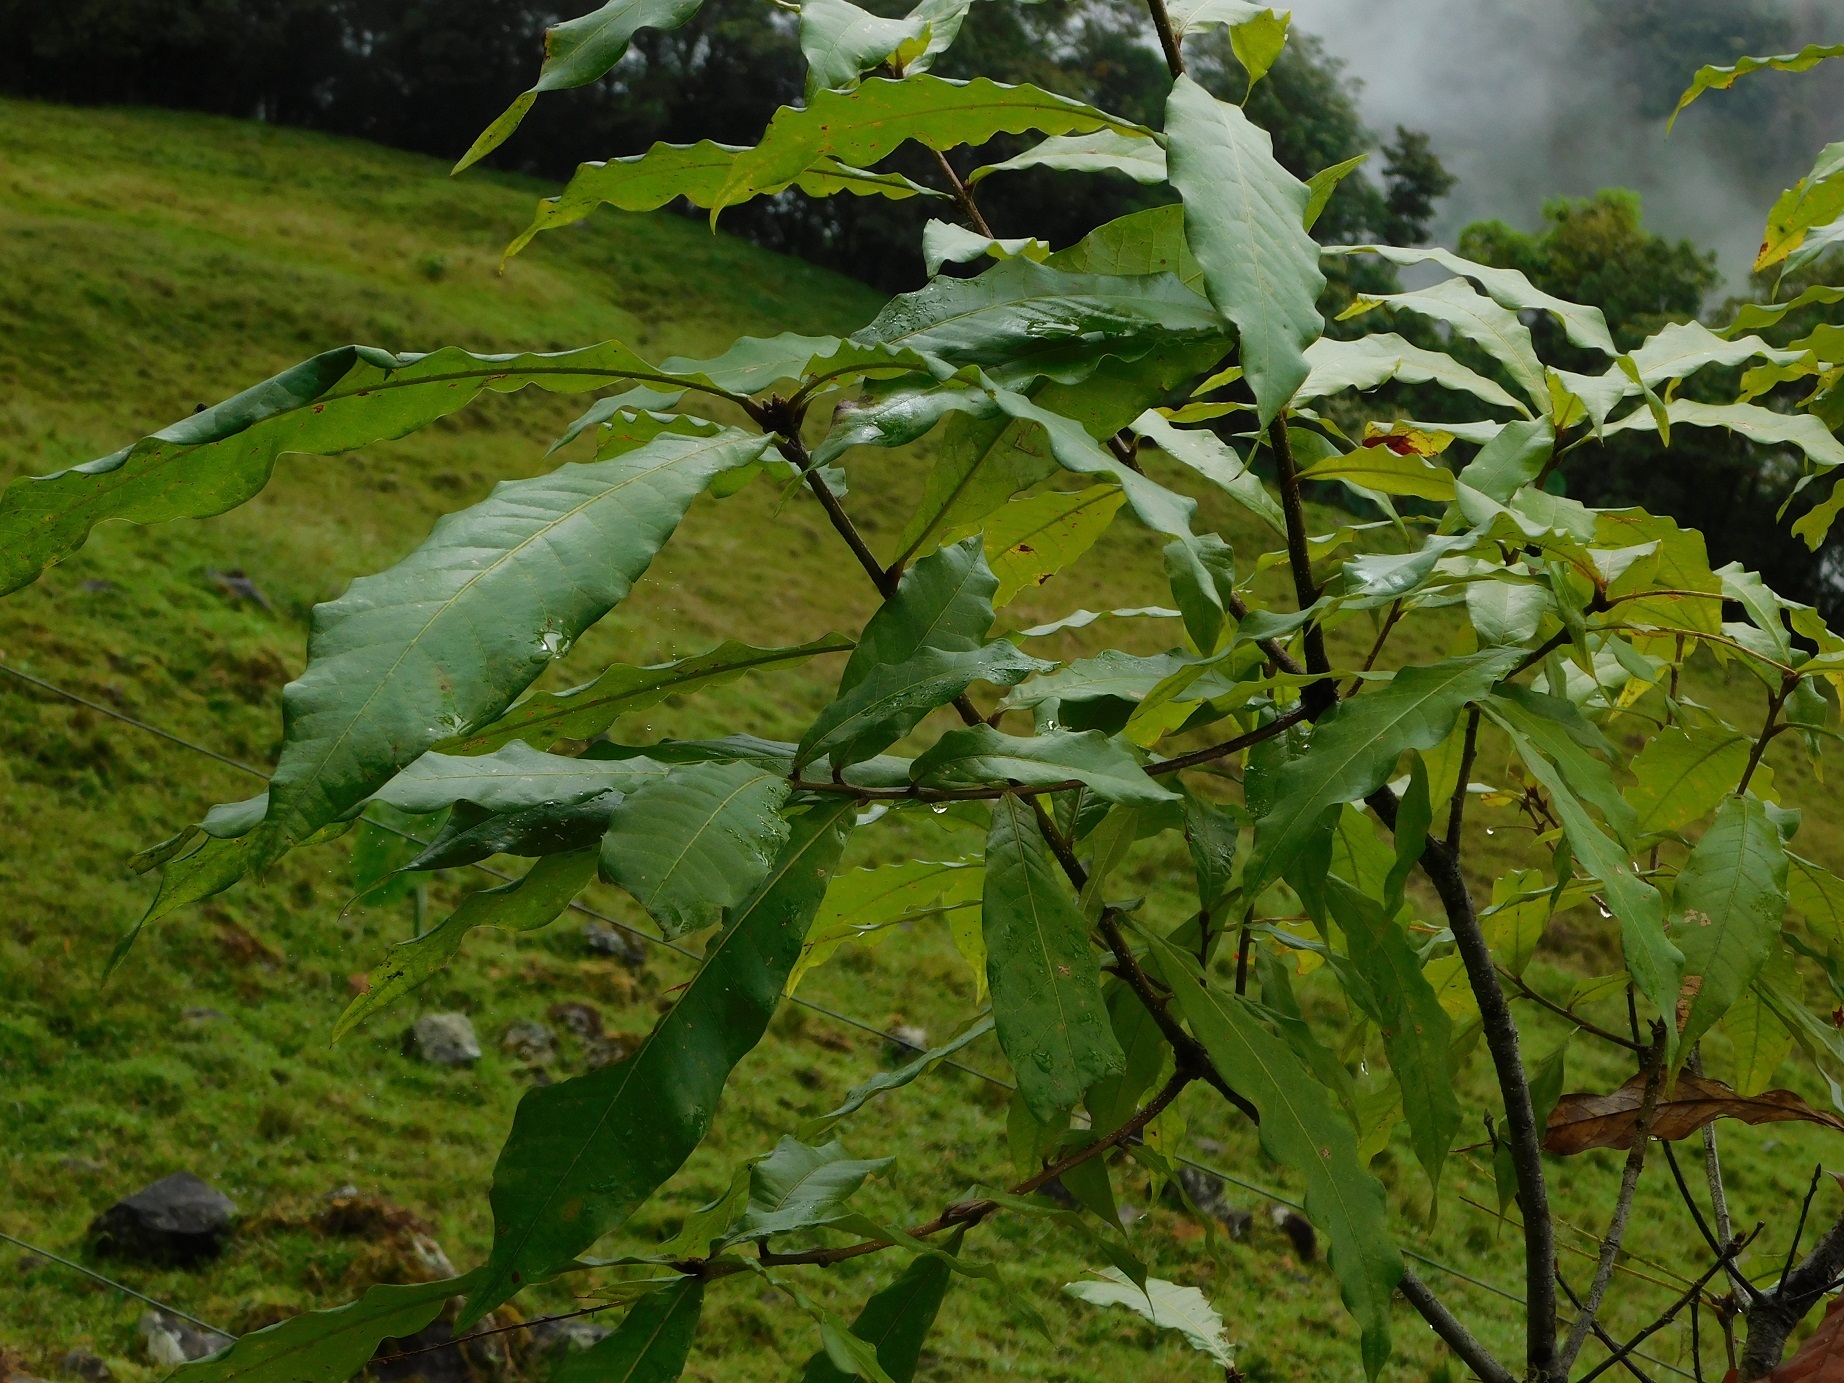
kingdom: Plantae
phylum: Tracheophyta
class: Magnoliopsida
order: Fagales
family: Fagaceae
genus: Quercus
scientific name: Quercus humboldtii
